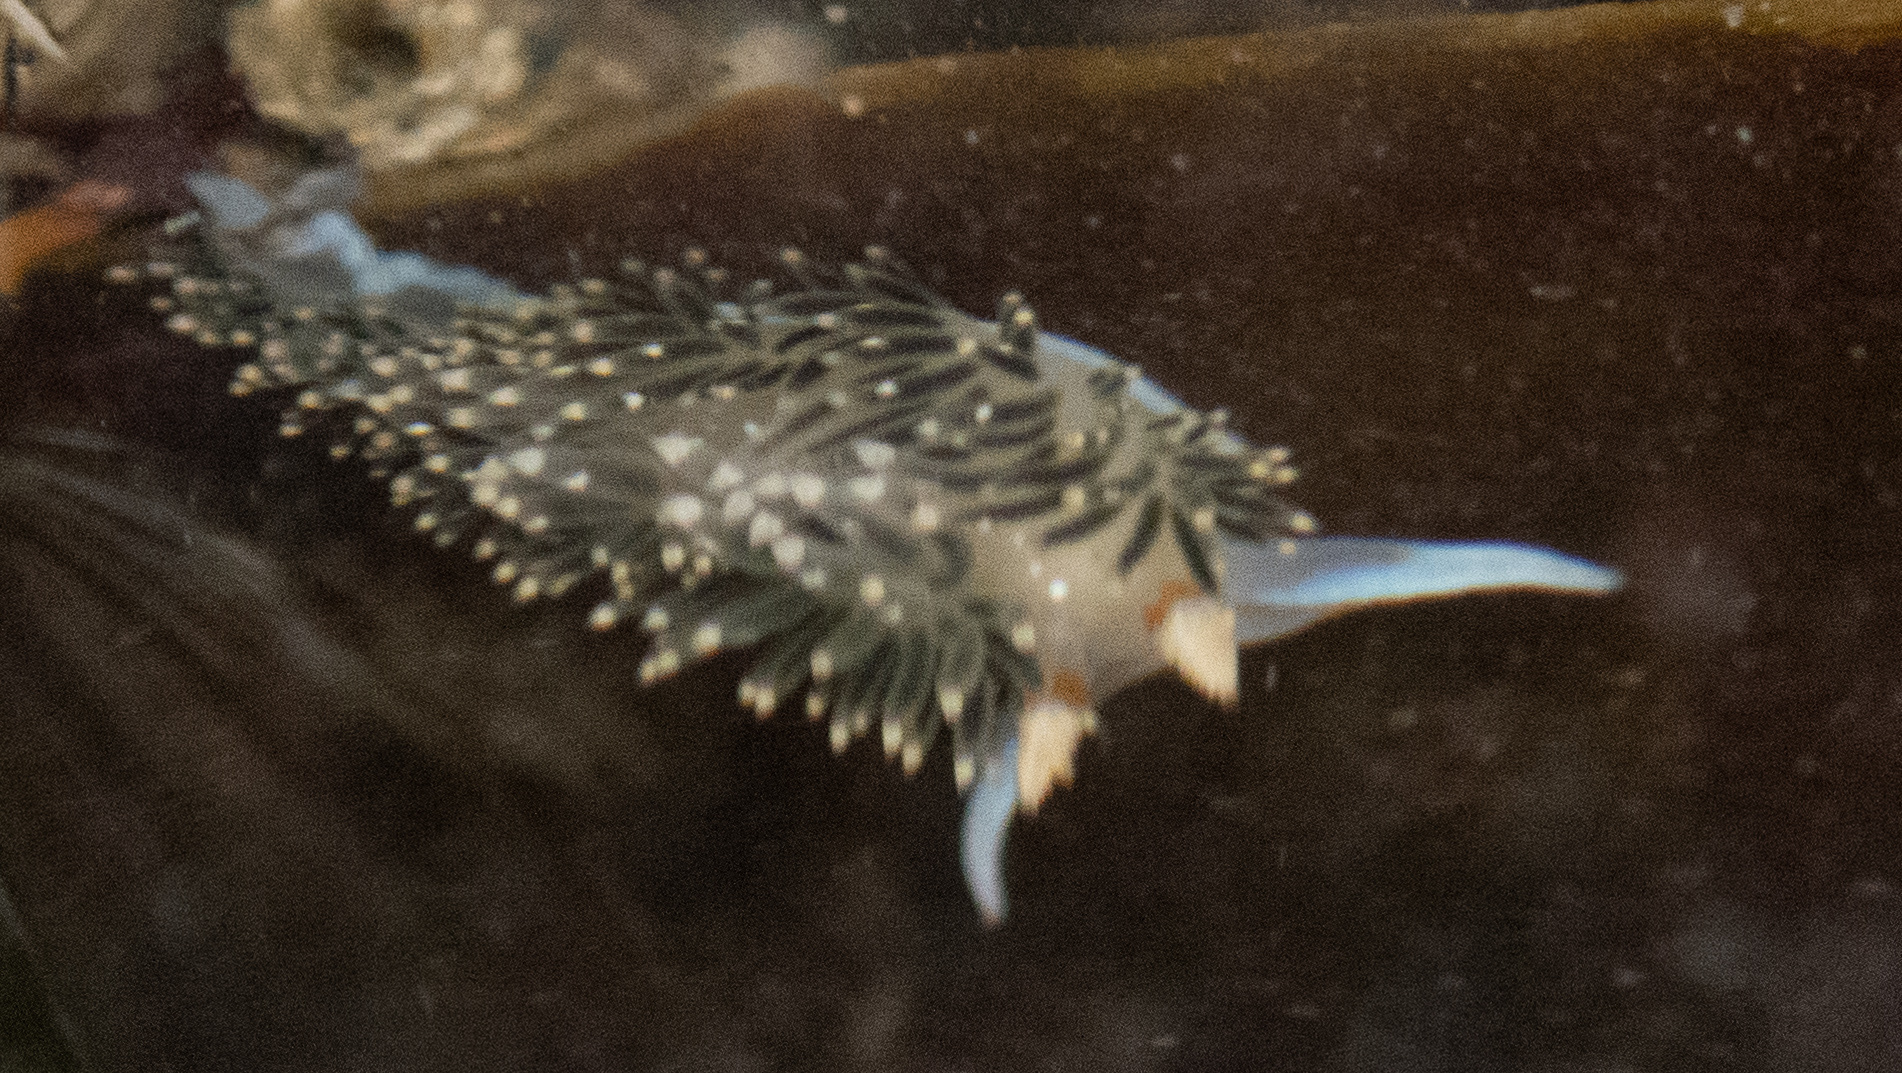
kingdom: Animalia
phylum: Mollusca
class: Gastropoda
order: Nudibranchia
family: Facelinidae
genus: Phidiana
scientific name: Phidiana hiltoni
